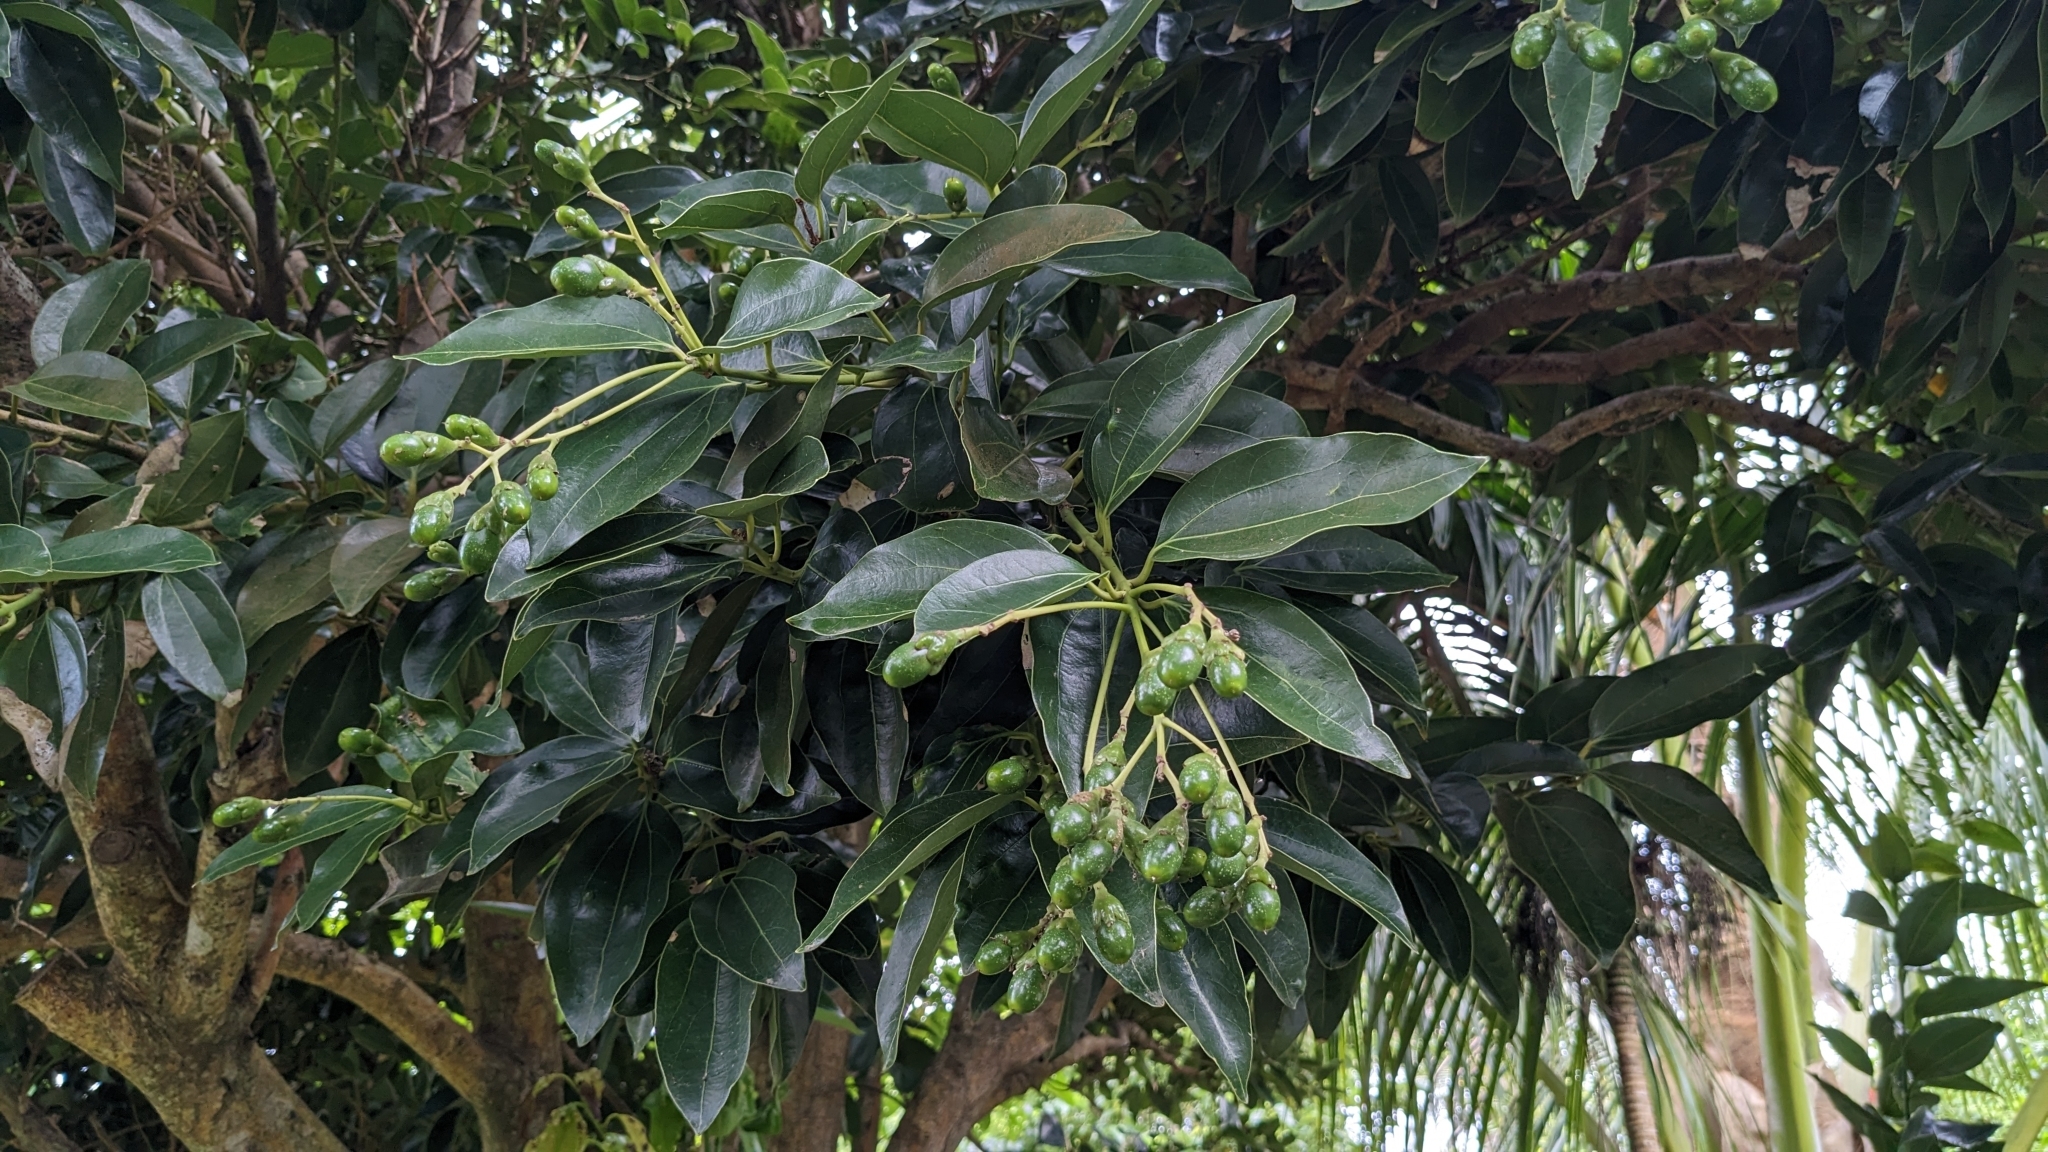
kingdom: Plantae
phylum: Tracheophyta
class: Magnoliopsida
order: Laurales
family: Lauraceae
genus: Cinnamomum
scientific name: Cinnamomum kotoense
